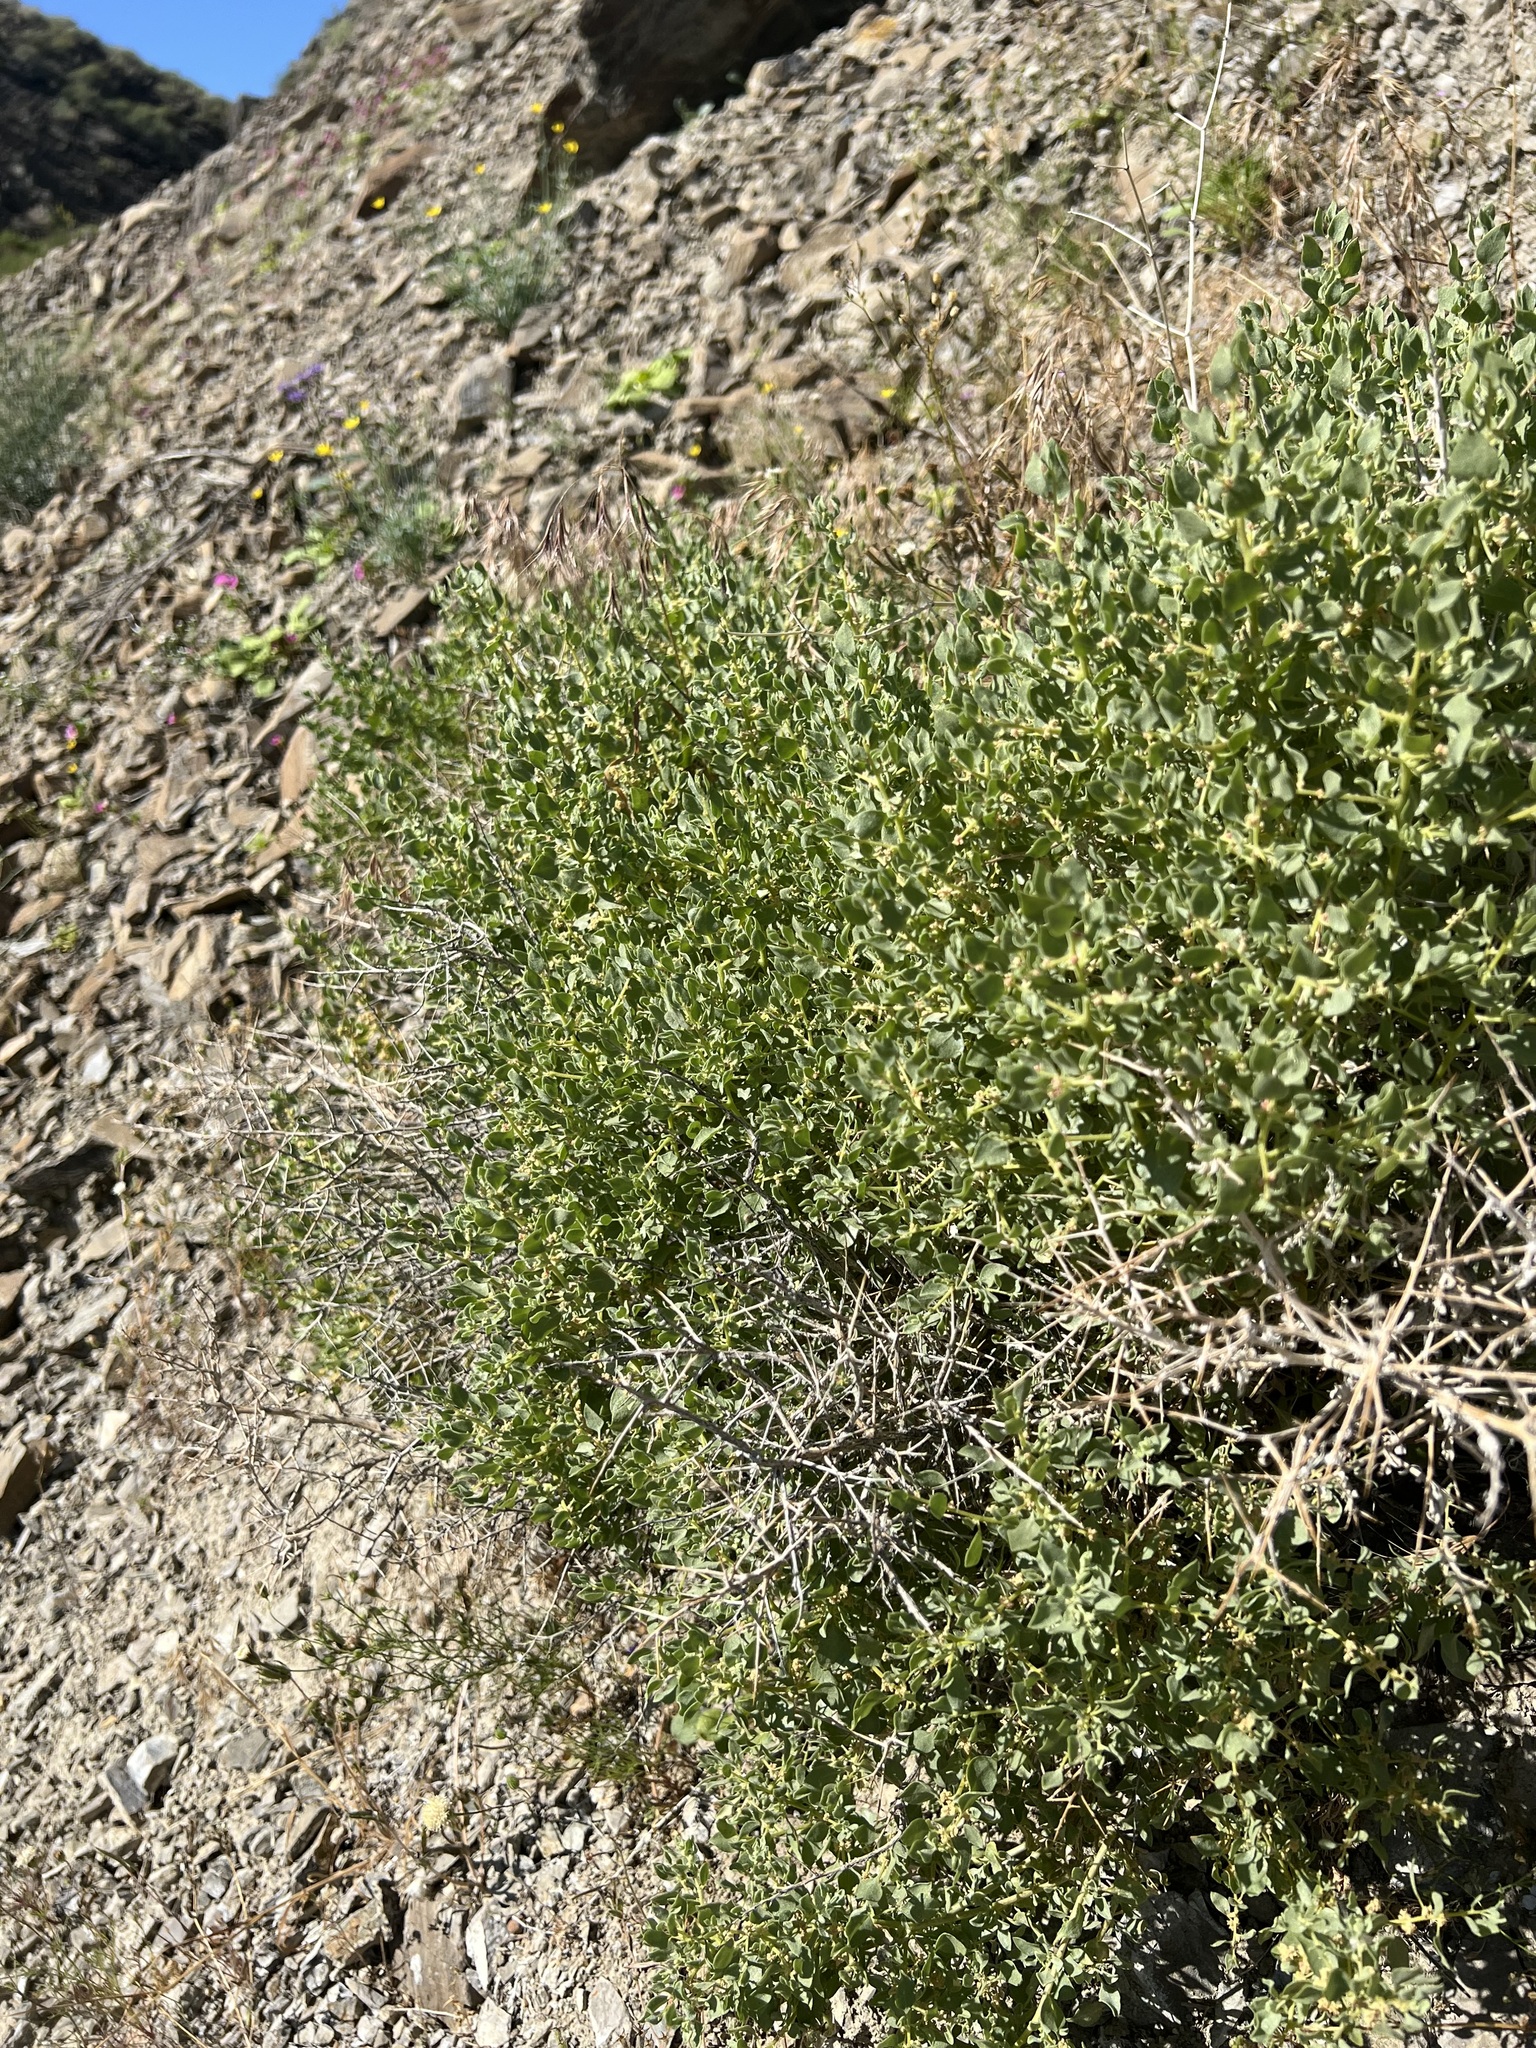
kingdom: Plantae
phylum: Tracheophyta
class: Magnoliopsida
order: Caryophyllales
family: Amaranthaceae
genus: Atriplex
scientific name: Atriplex confertifolia
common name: Shadscale
